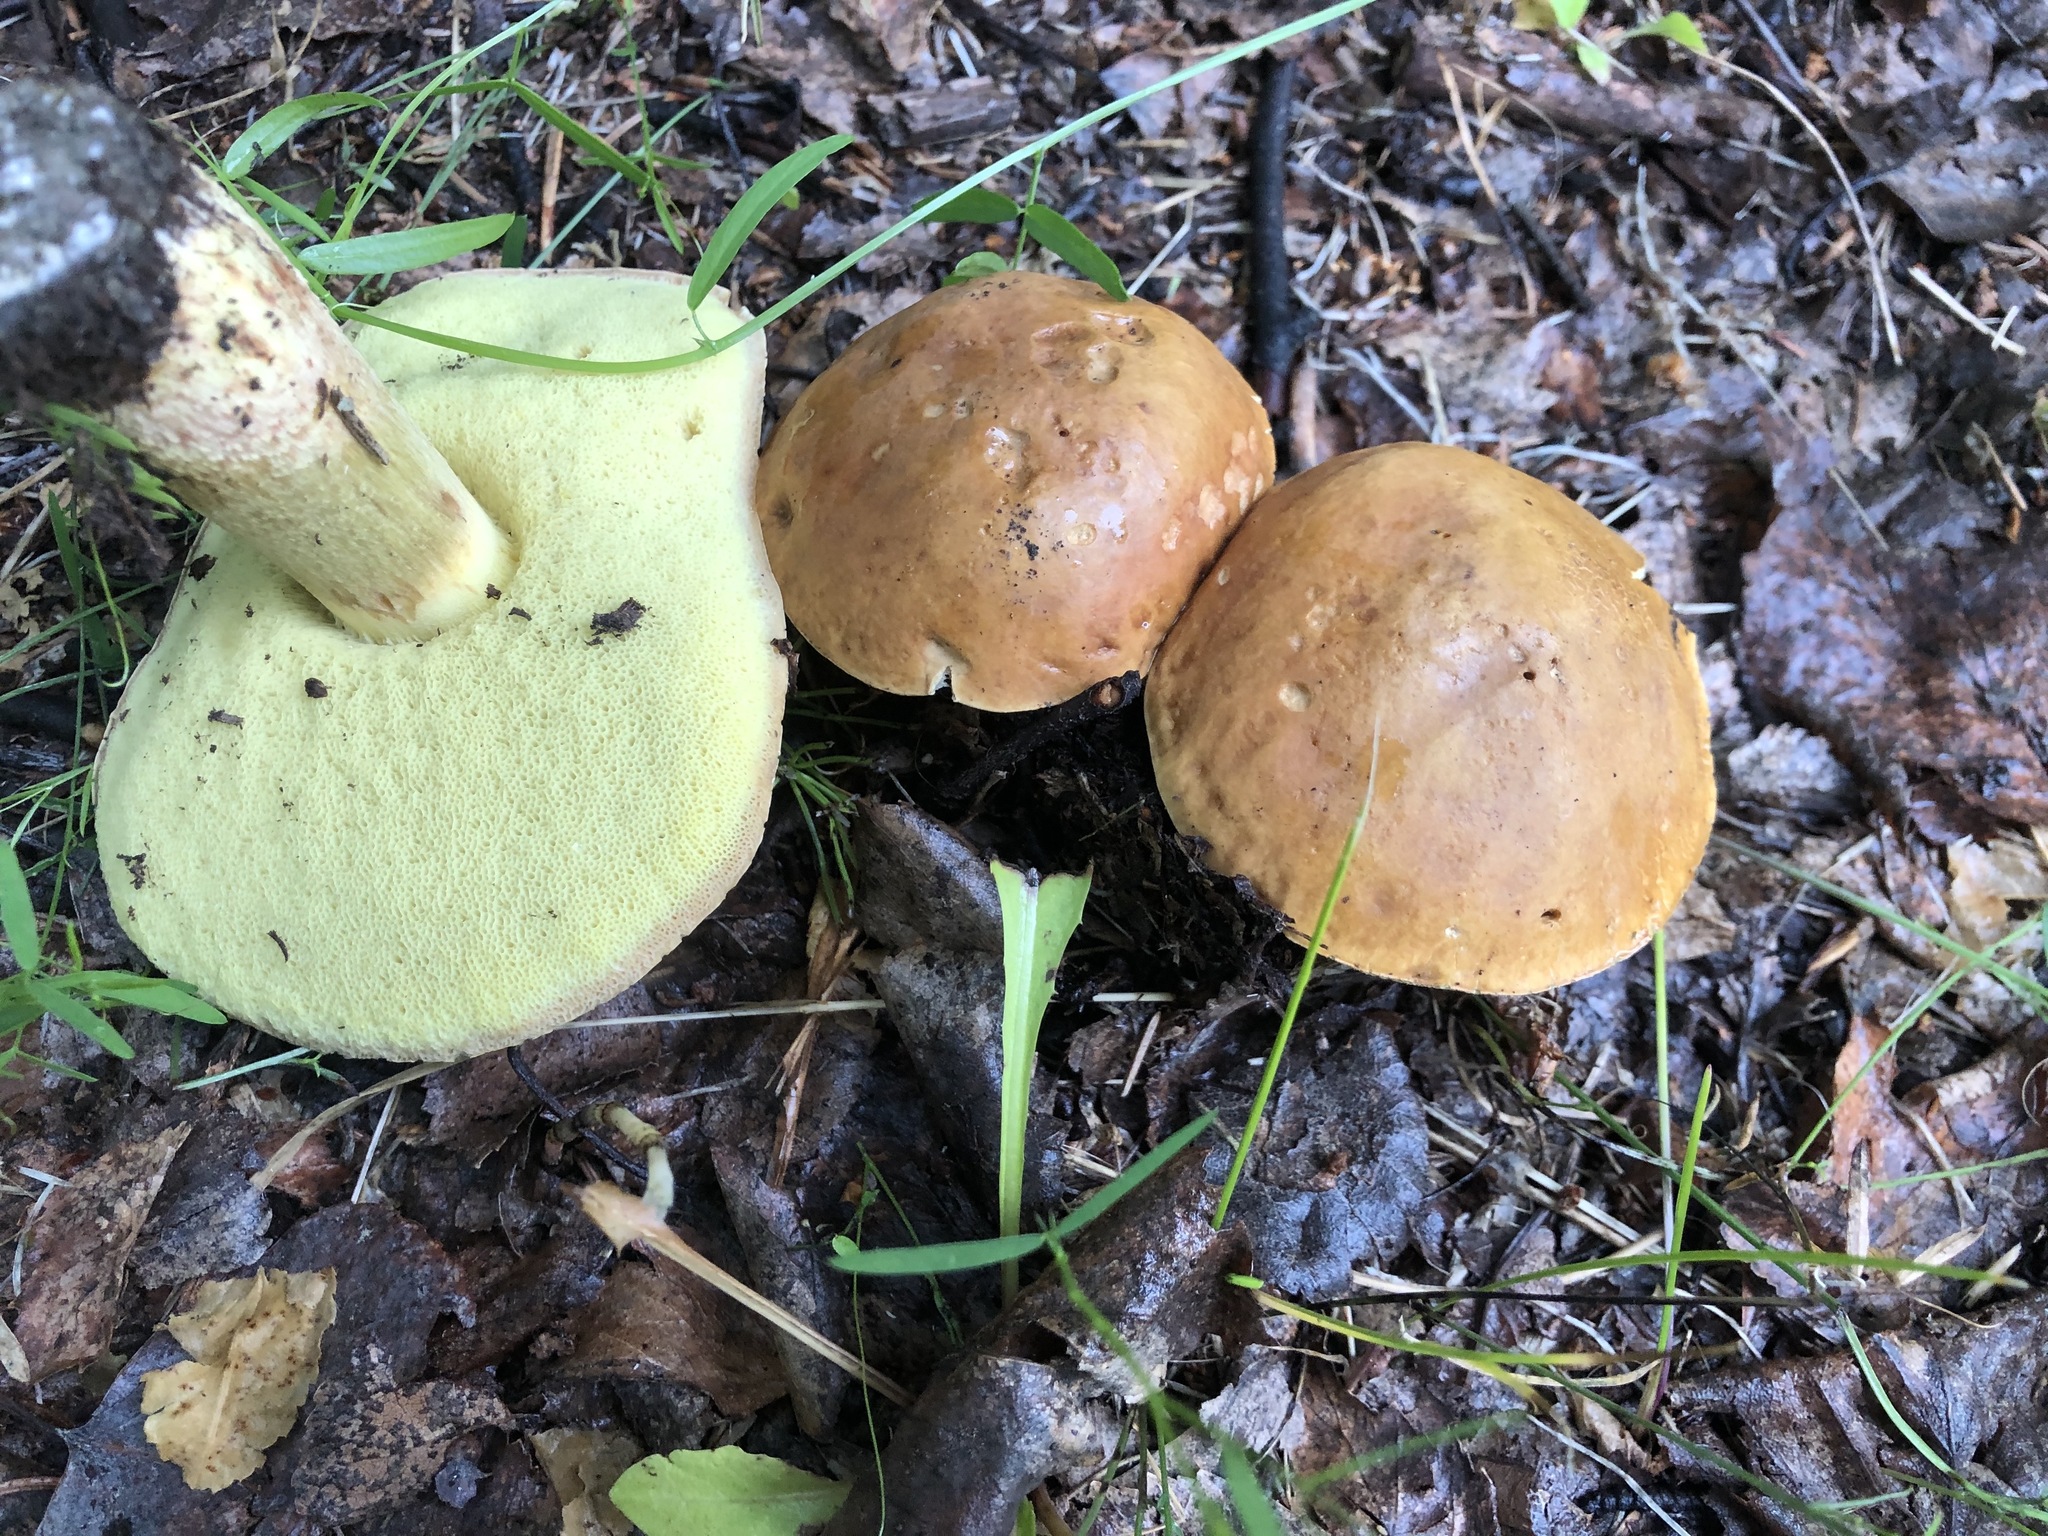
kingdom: Fungi
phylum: Basidiomycota
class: Agaricomycetes
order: Boletales
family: Boletaceae
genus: Hemileccinum
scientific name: Hemileccinum subglabripes
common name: Smoothish-stemmed bolete
